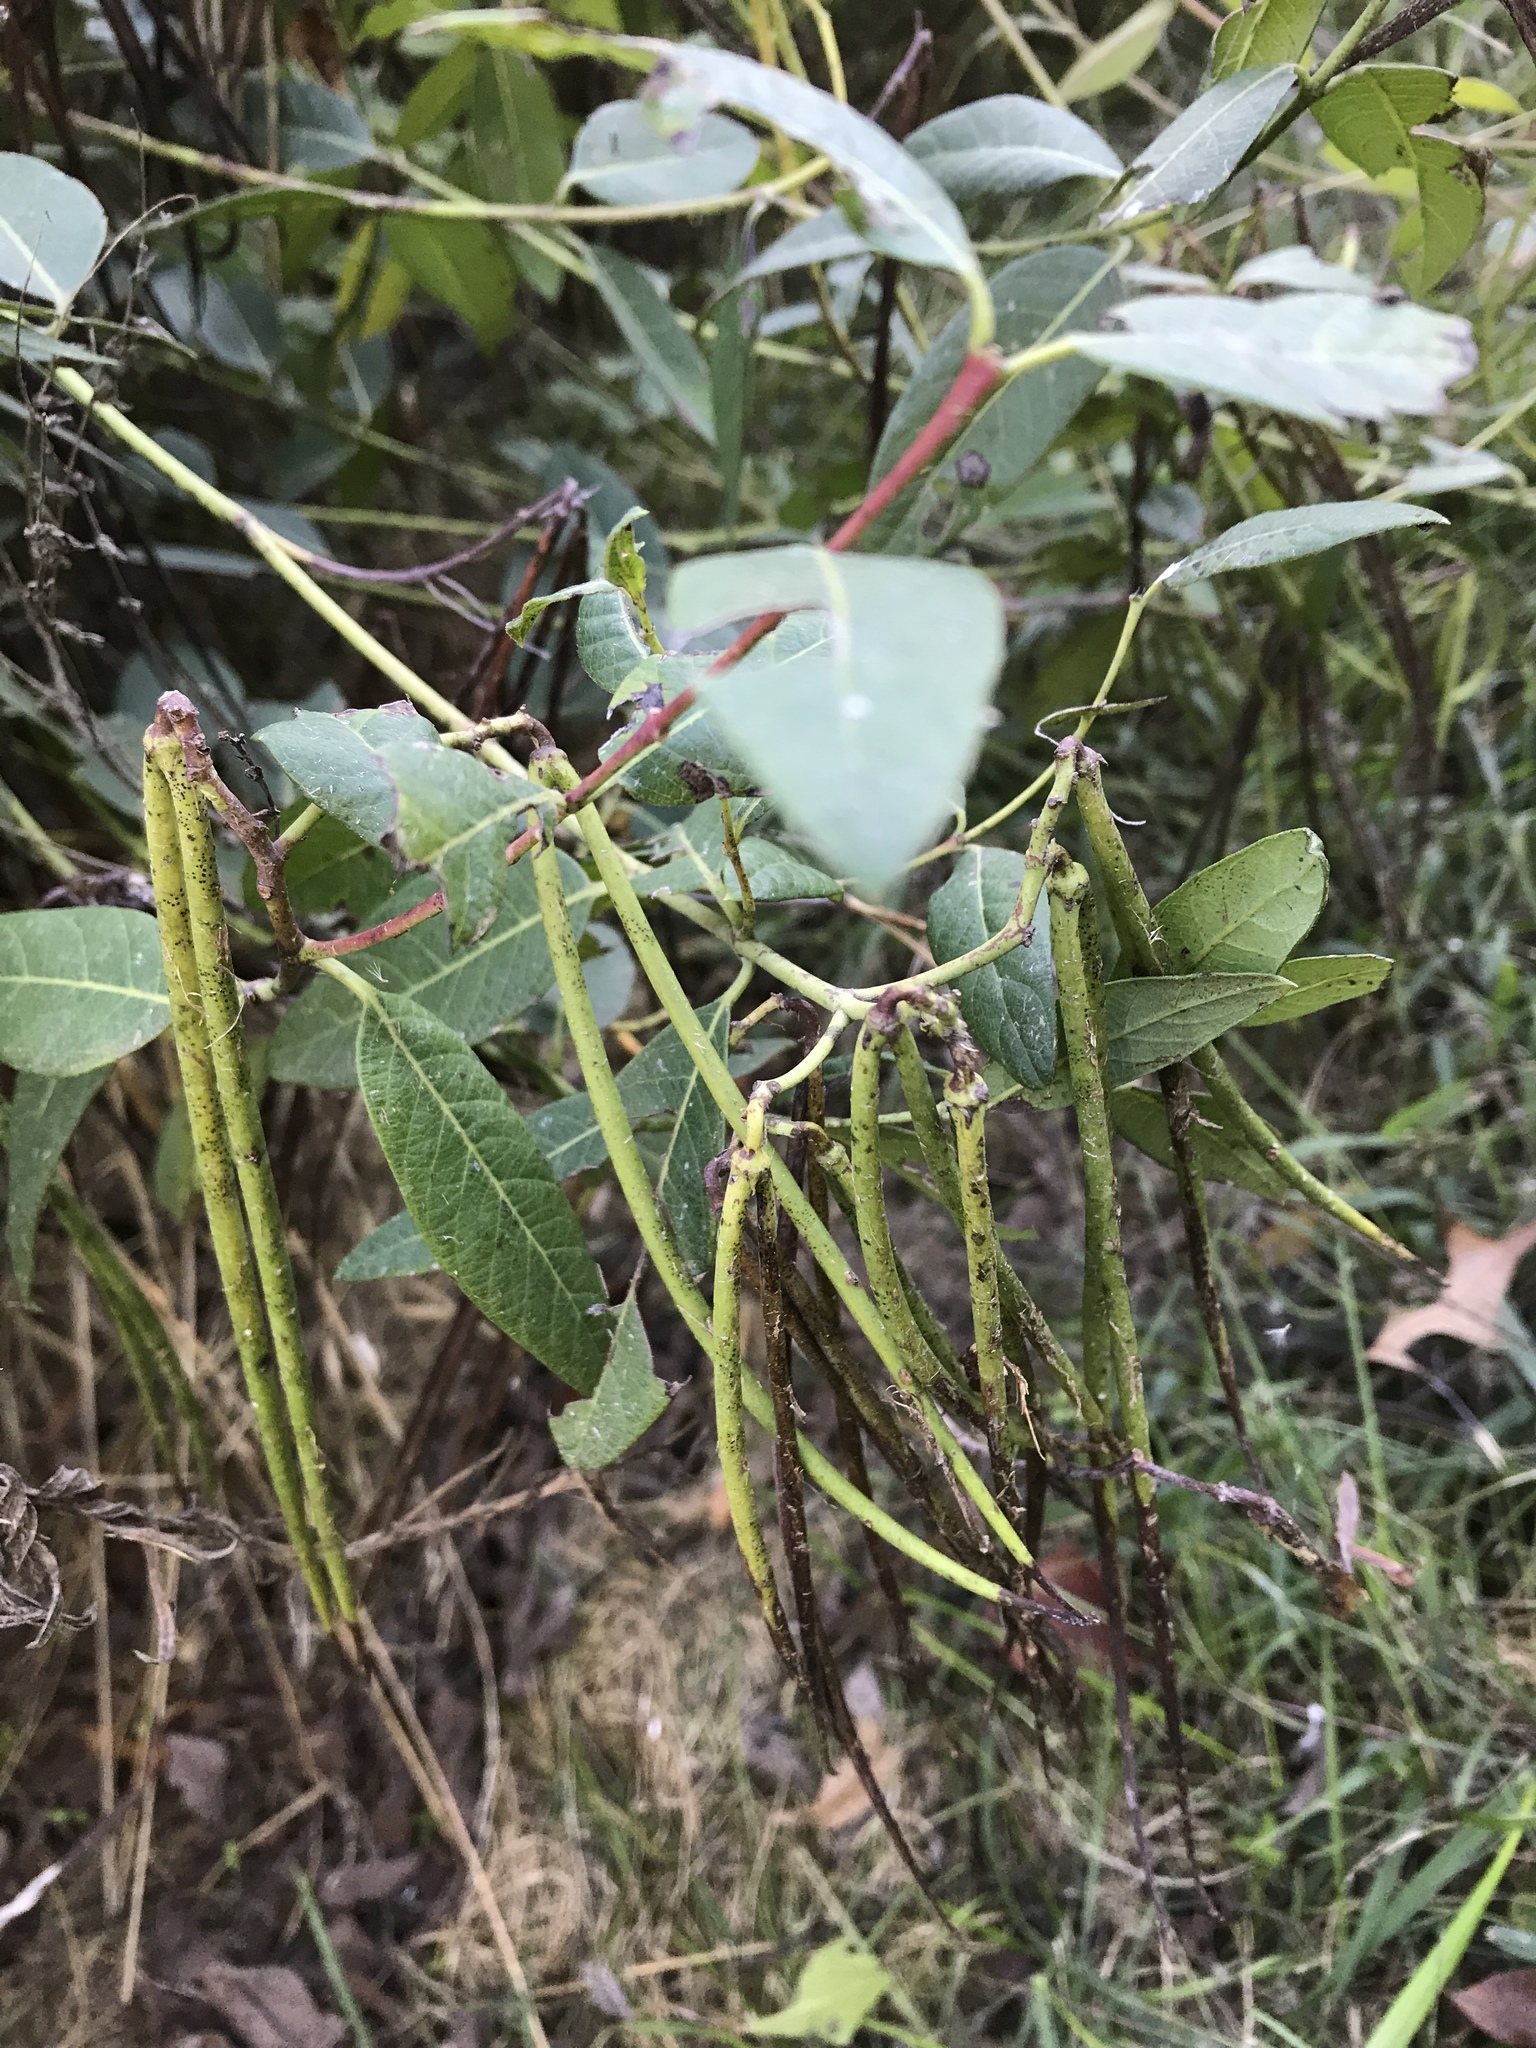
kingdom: Plantae
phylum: Tracheophyta
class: Magnoliopsida
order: Gentianales
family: Apocynaceae
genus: Apocynum
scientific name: Apocynum cannabinum
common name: Hemp dogbane
